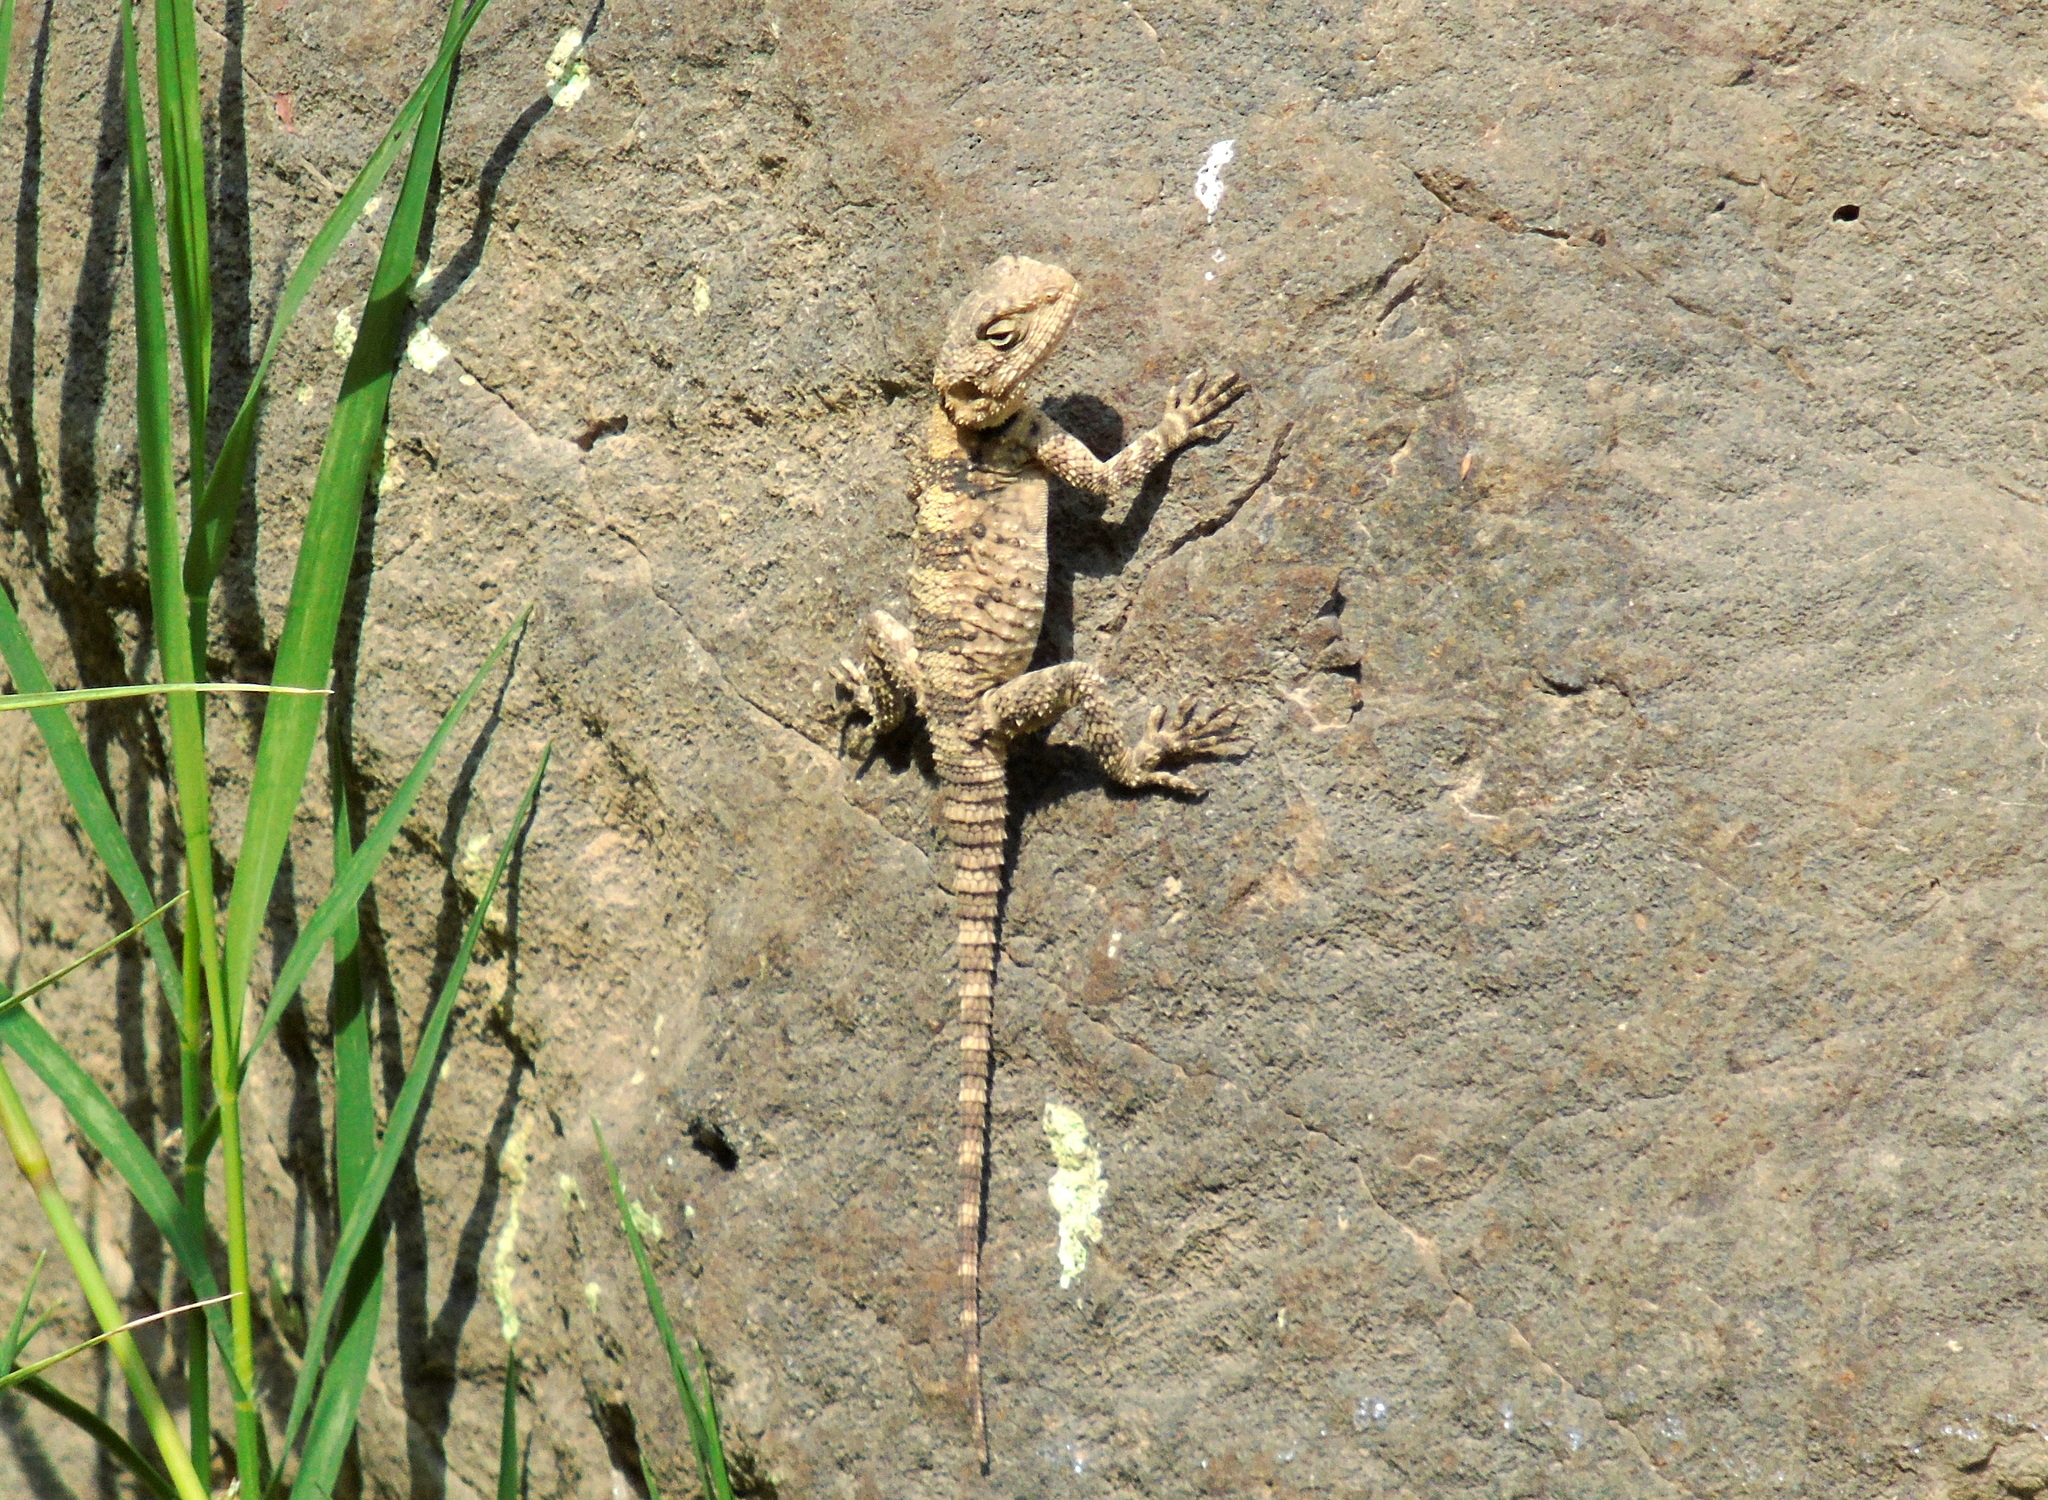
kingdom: Animalia
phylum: Chordata
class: Squamata
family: Agamidae
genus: Stellagama
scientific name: Stellagama stellio
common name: Starred agama
